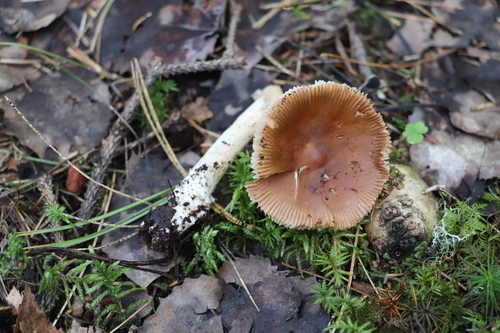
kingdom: Fungi
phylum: Basidiomycota
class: Agaricomycetes
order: Agaricales
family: Amanitaceae
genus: Amanita
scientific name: Amanita fulva
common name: Tawny grisette
